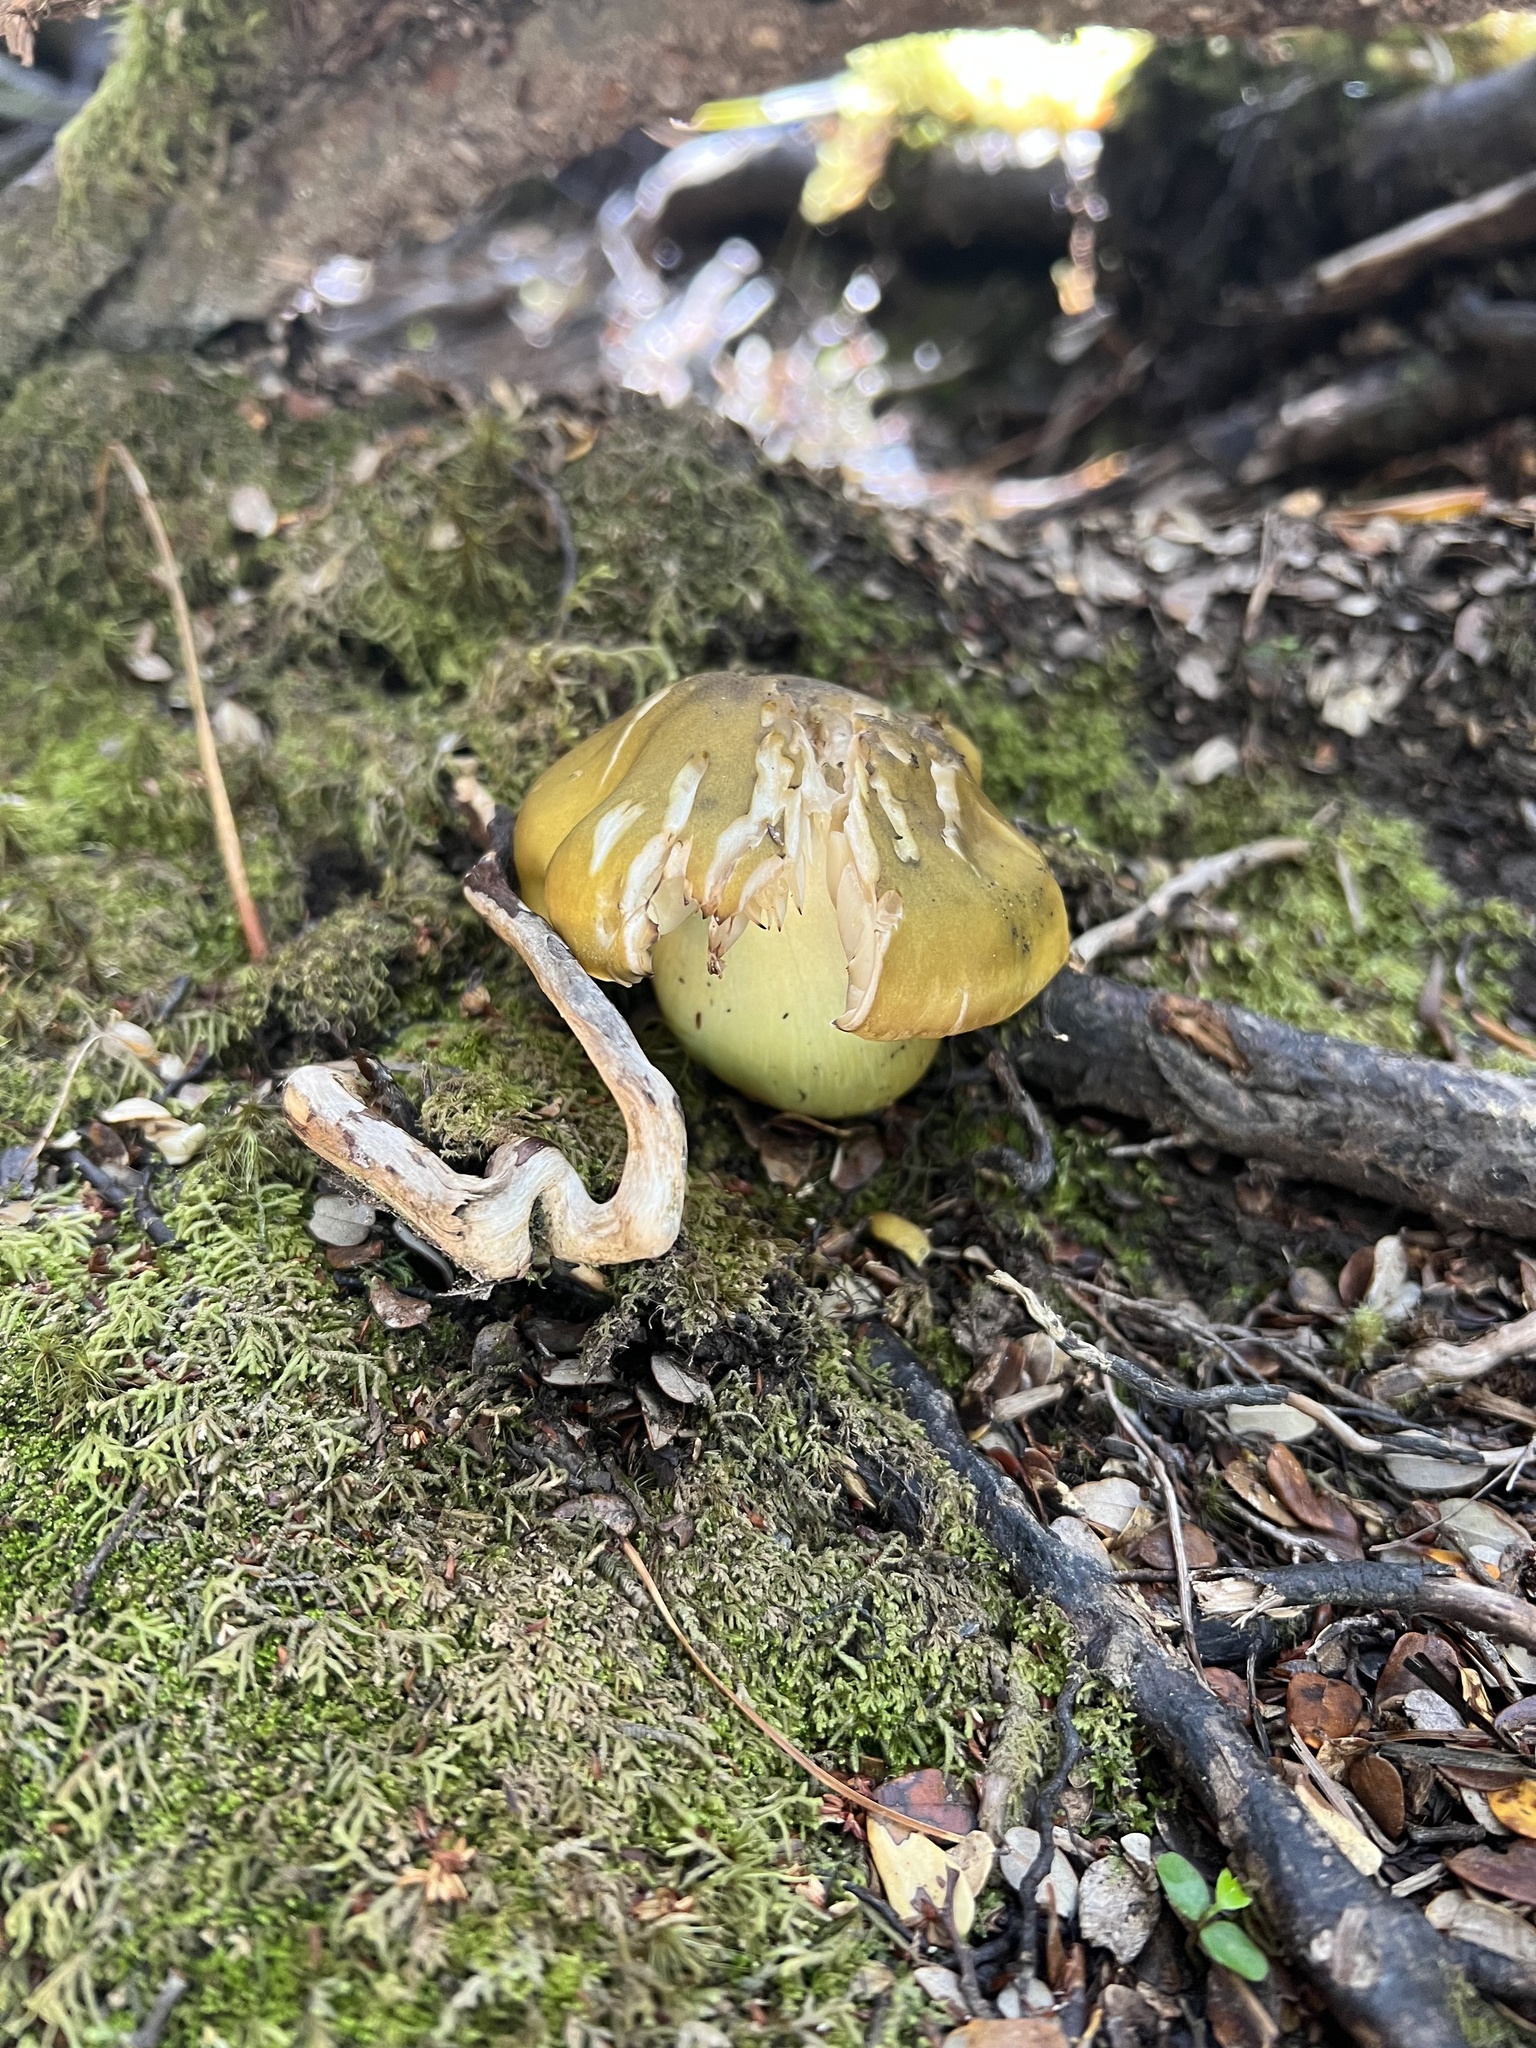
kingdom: Fungi
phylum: Basidiomycota
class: Agaricomycetes
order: Agaricales
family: Tricholomataceae
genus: Tricholoma
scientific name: Tricholoma viridiolivaceum
